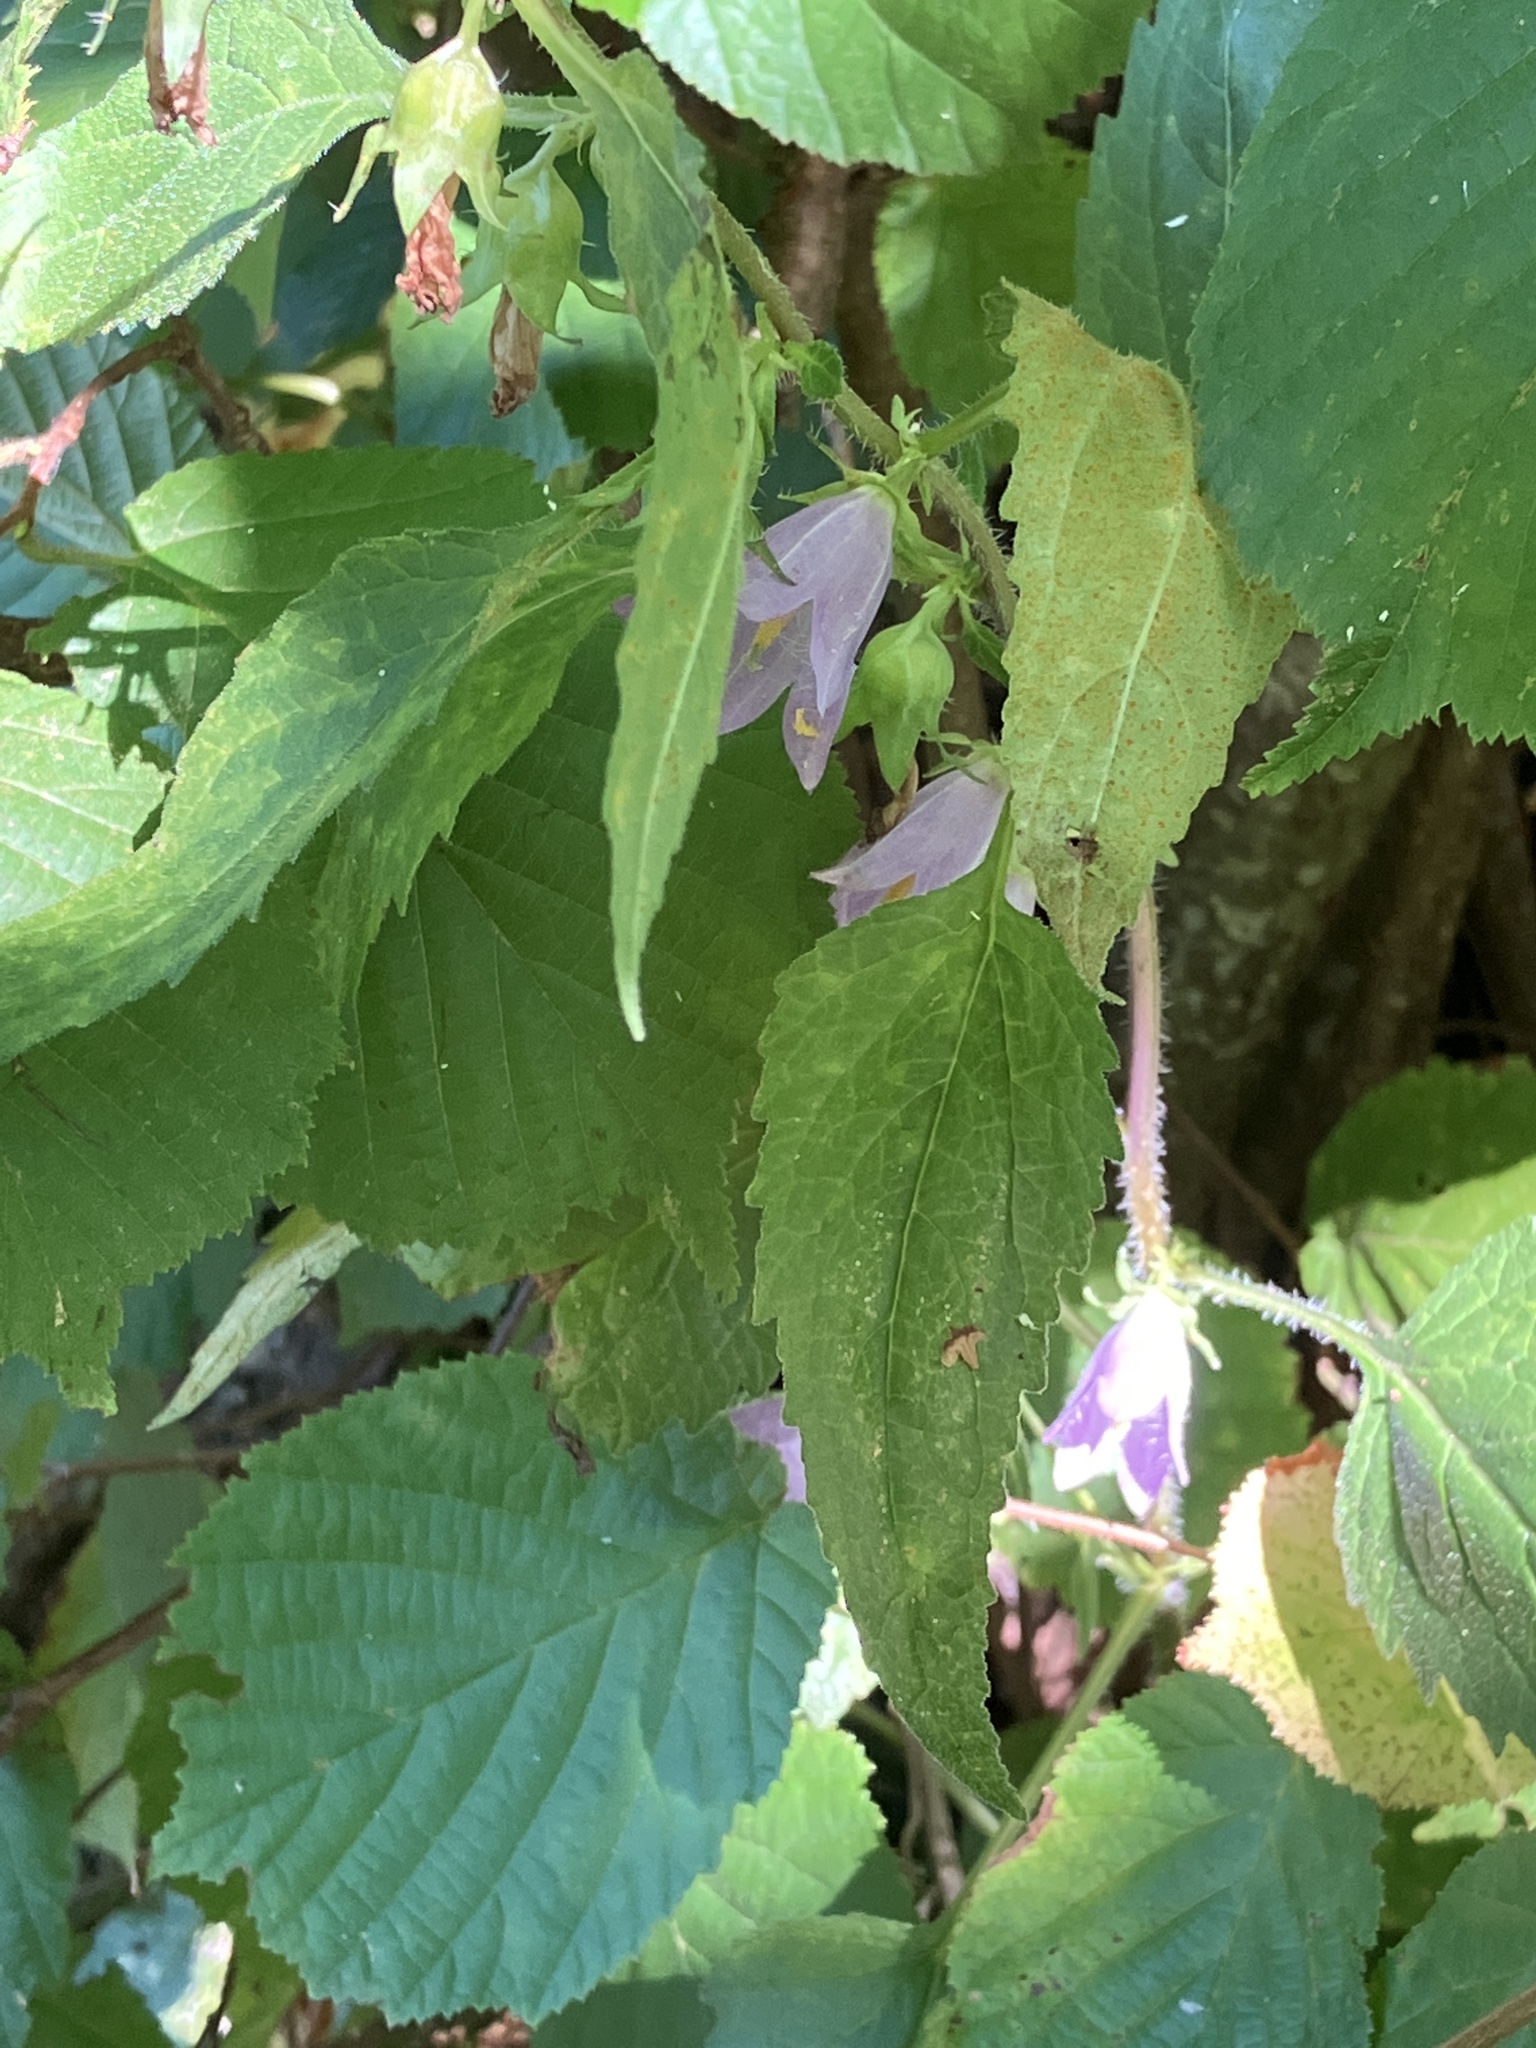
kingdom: Plantae
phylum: Tracheophyta
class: Magnoliopsida
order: Asterales
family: Campanulaceae
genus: Campanula
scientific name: Campanula trachelium
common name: Nettle-leaved bellflower
